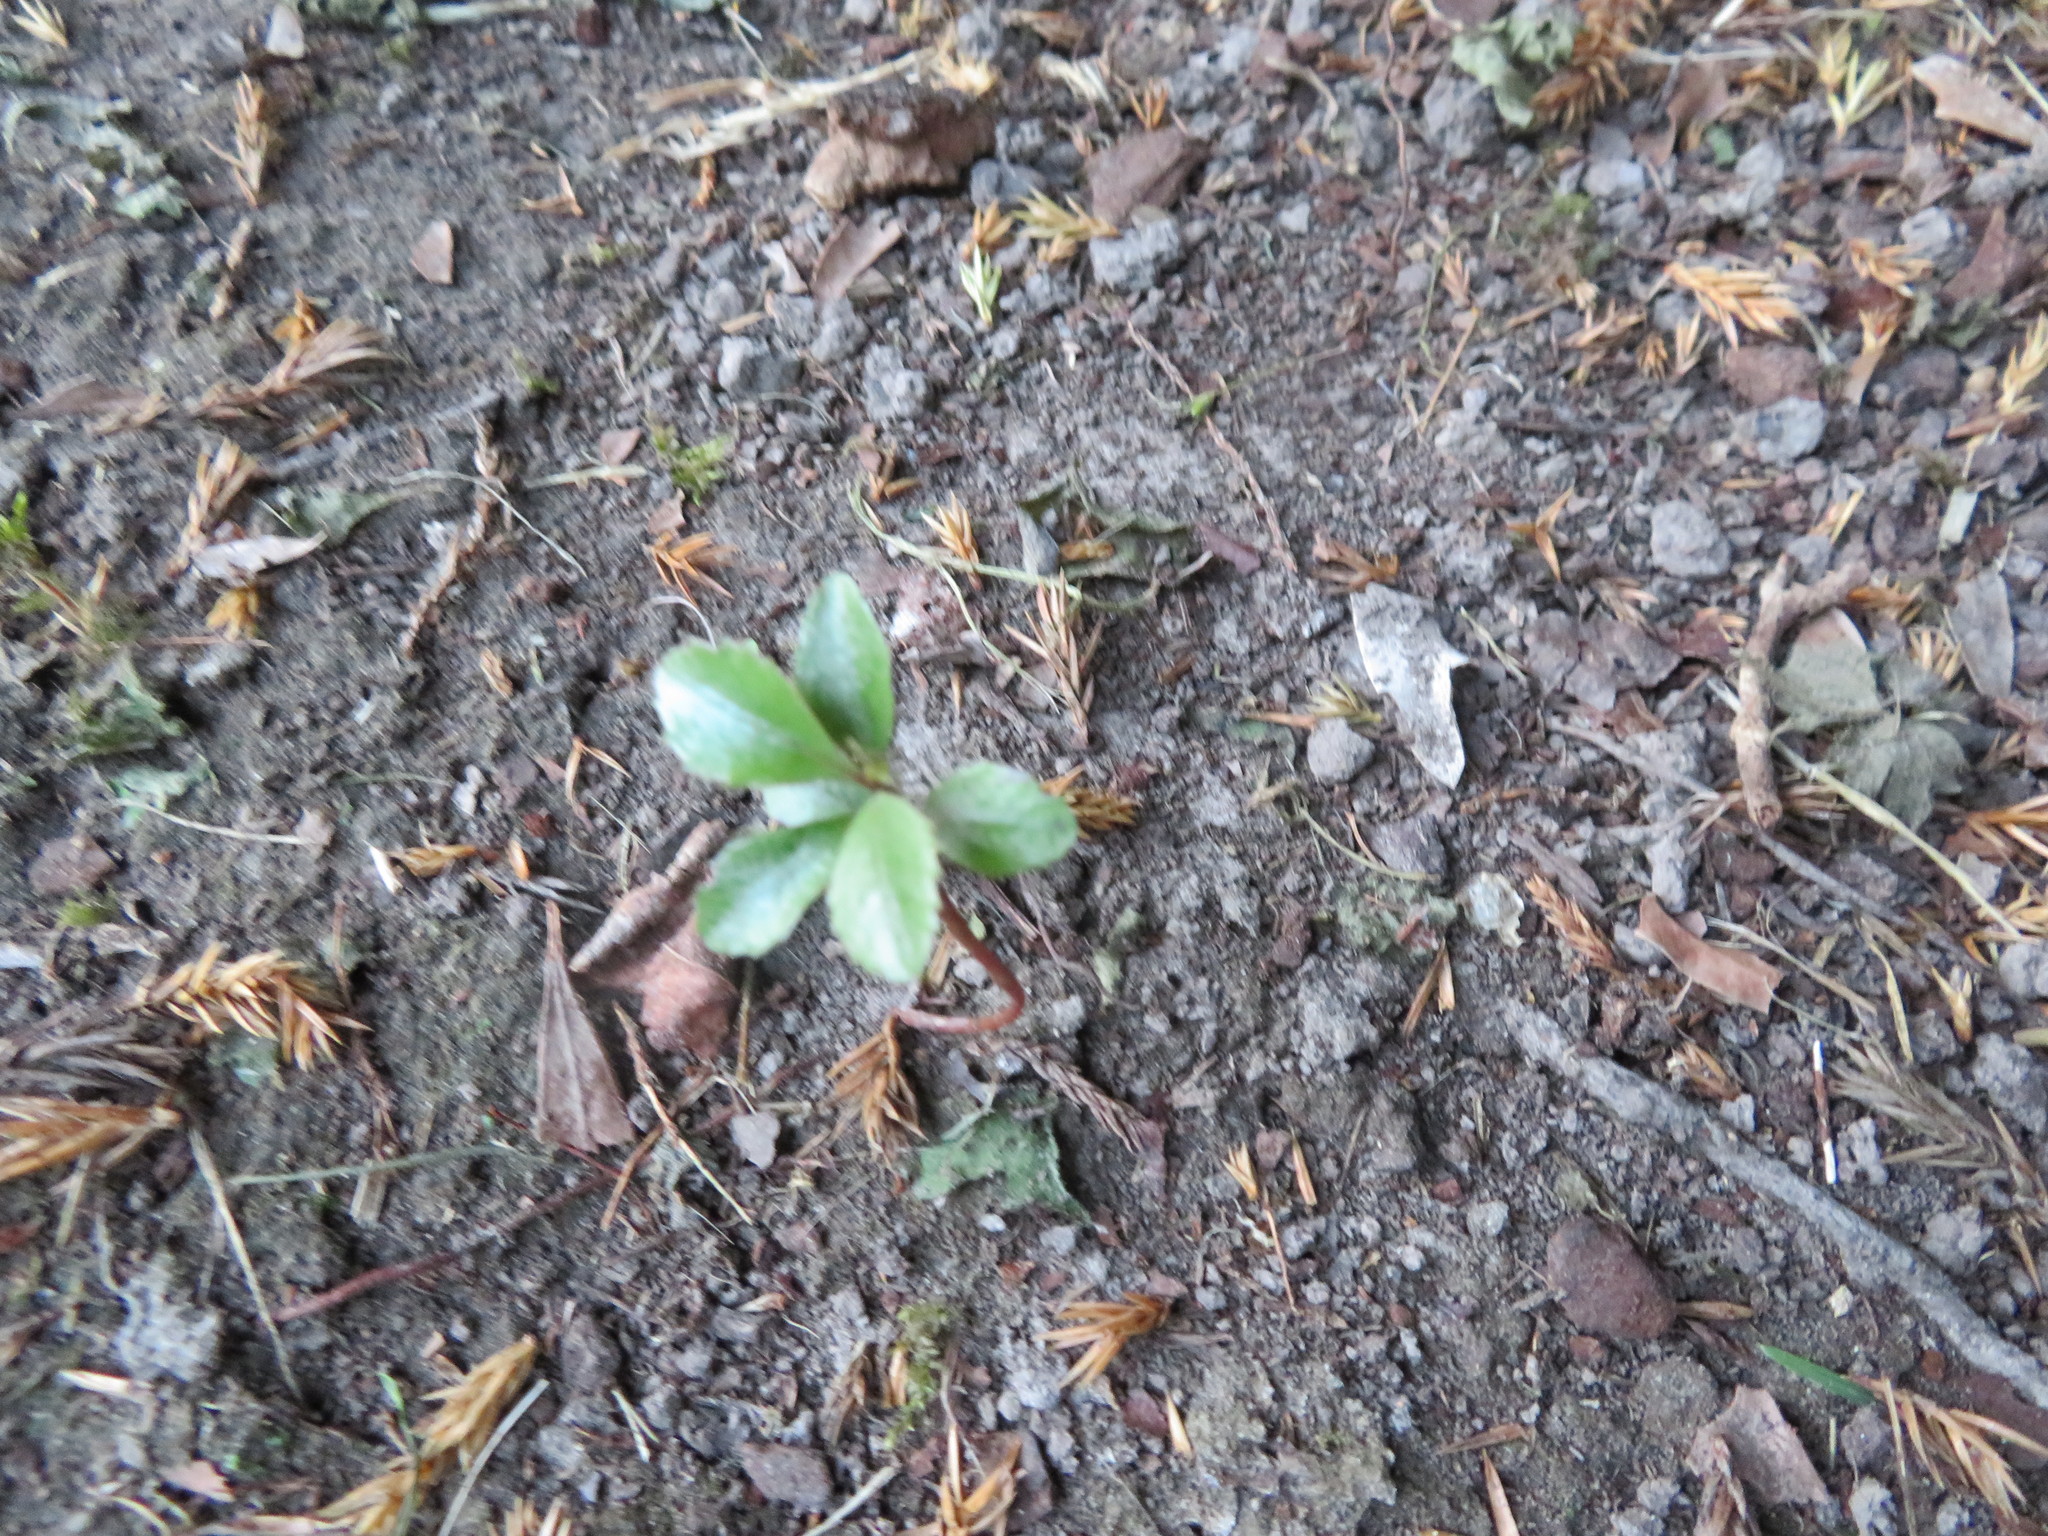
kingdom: Plantae
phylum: Tracheophyta
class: Magnoliopsida
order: Ericales
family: Primulaceae
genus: Myrsine
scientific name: Myrsine australis
